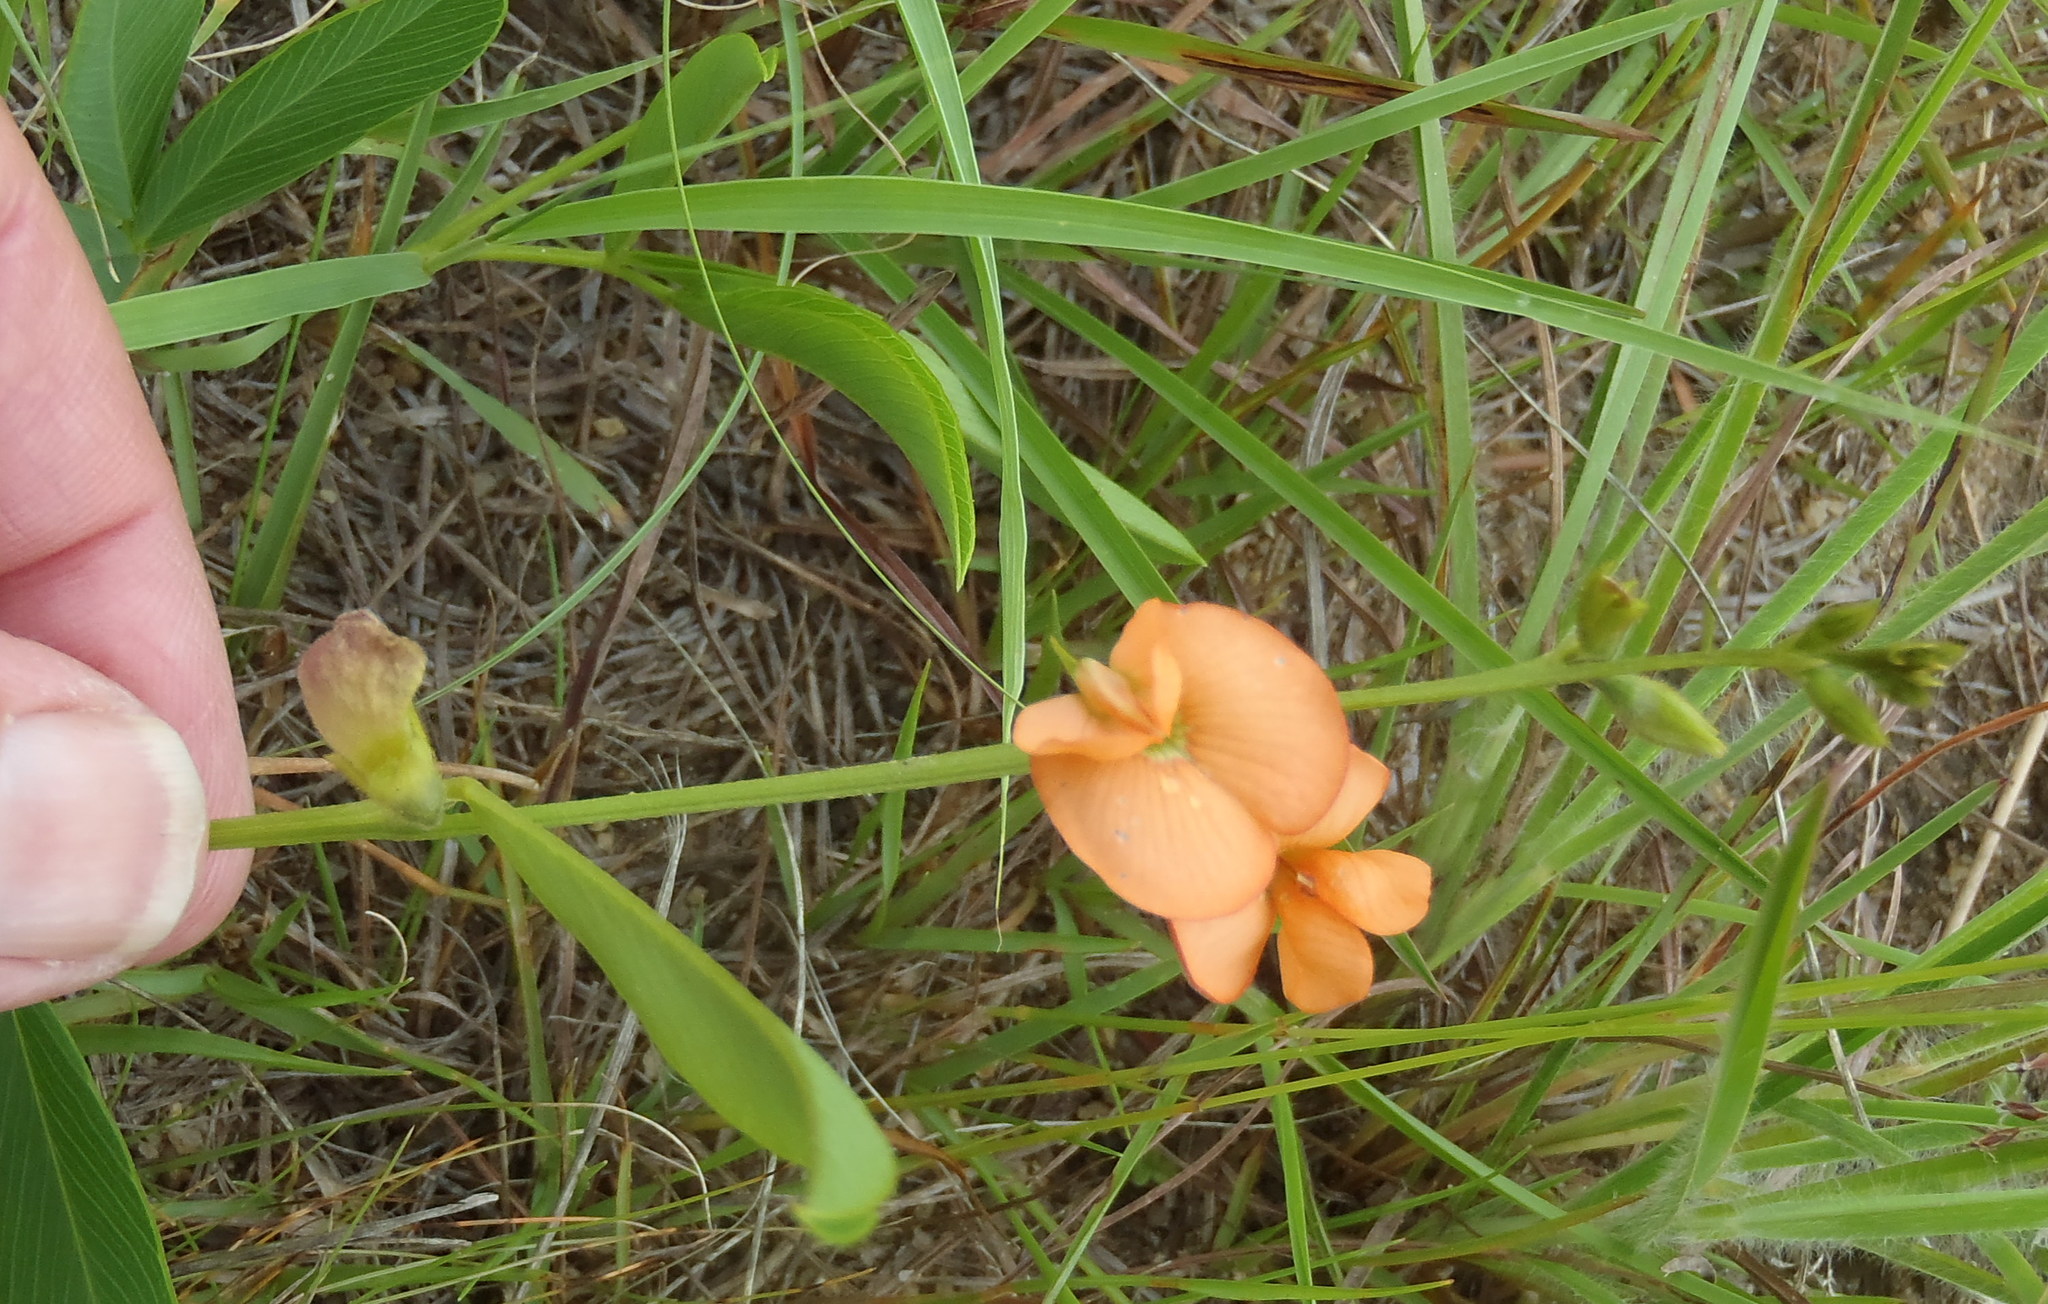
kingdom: Plantae
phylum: Tracheophyta
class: Magnoliopsida
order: Fabales
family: Fabaceae
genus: Tephrosia
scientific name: Tephrosia elongata
